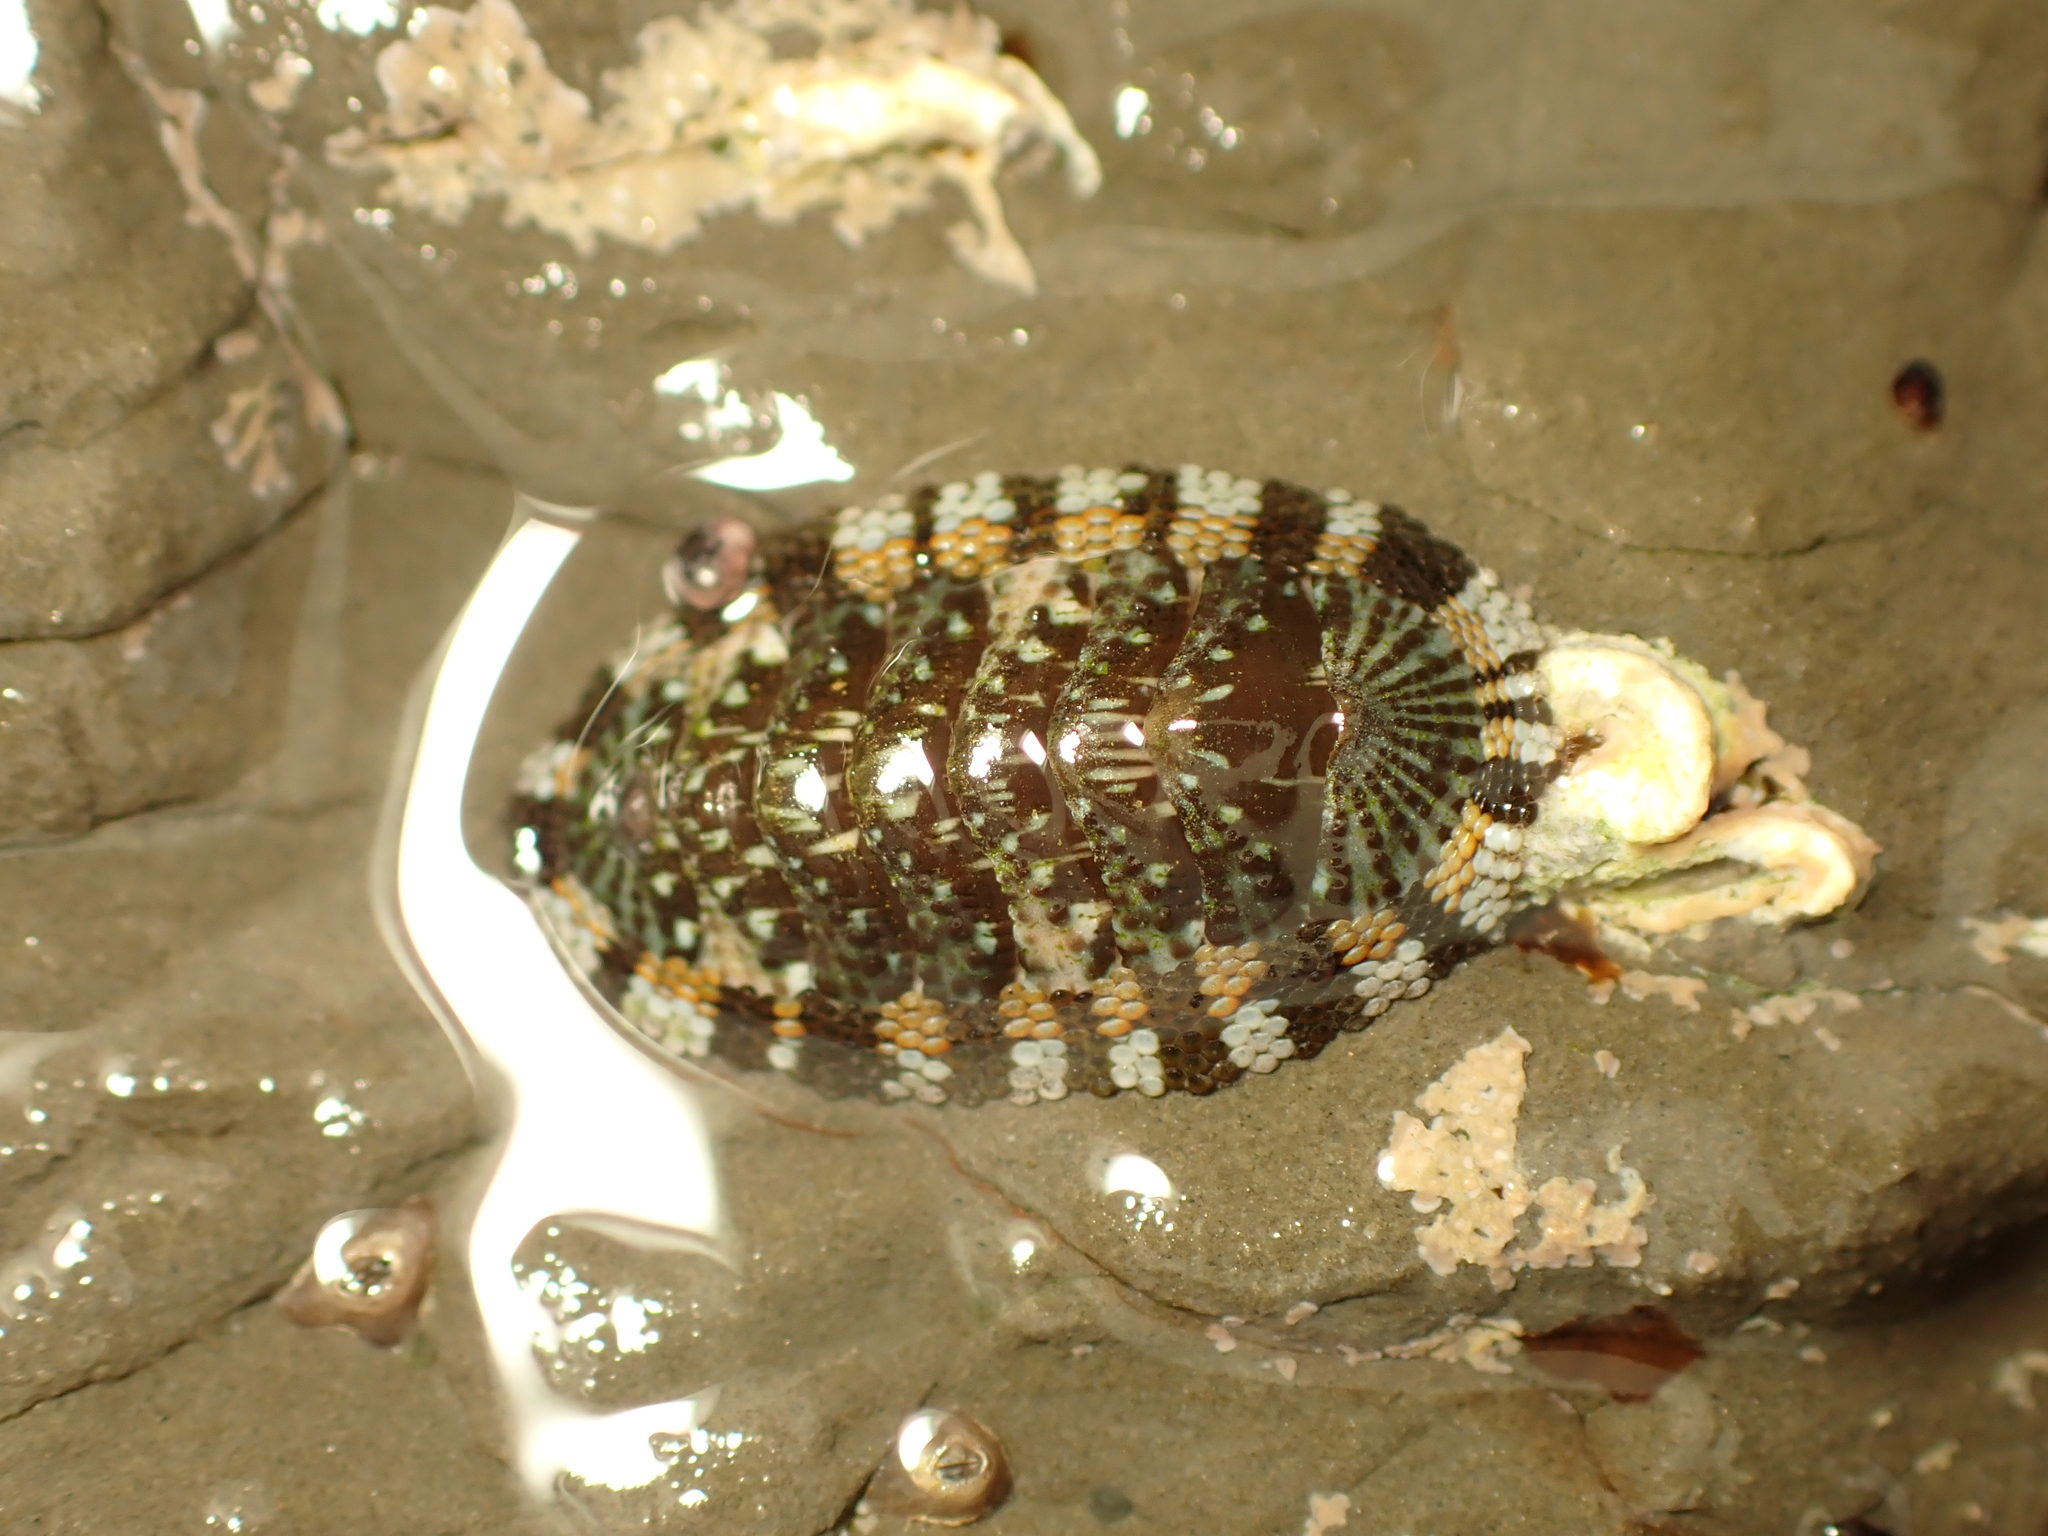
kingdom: Animalia
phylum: Mollusca
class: Polyplacophora
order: Chitonida
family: Chitonidae
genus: Sypharochiton
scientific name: Sypharochiton sinclairi
